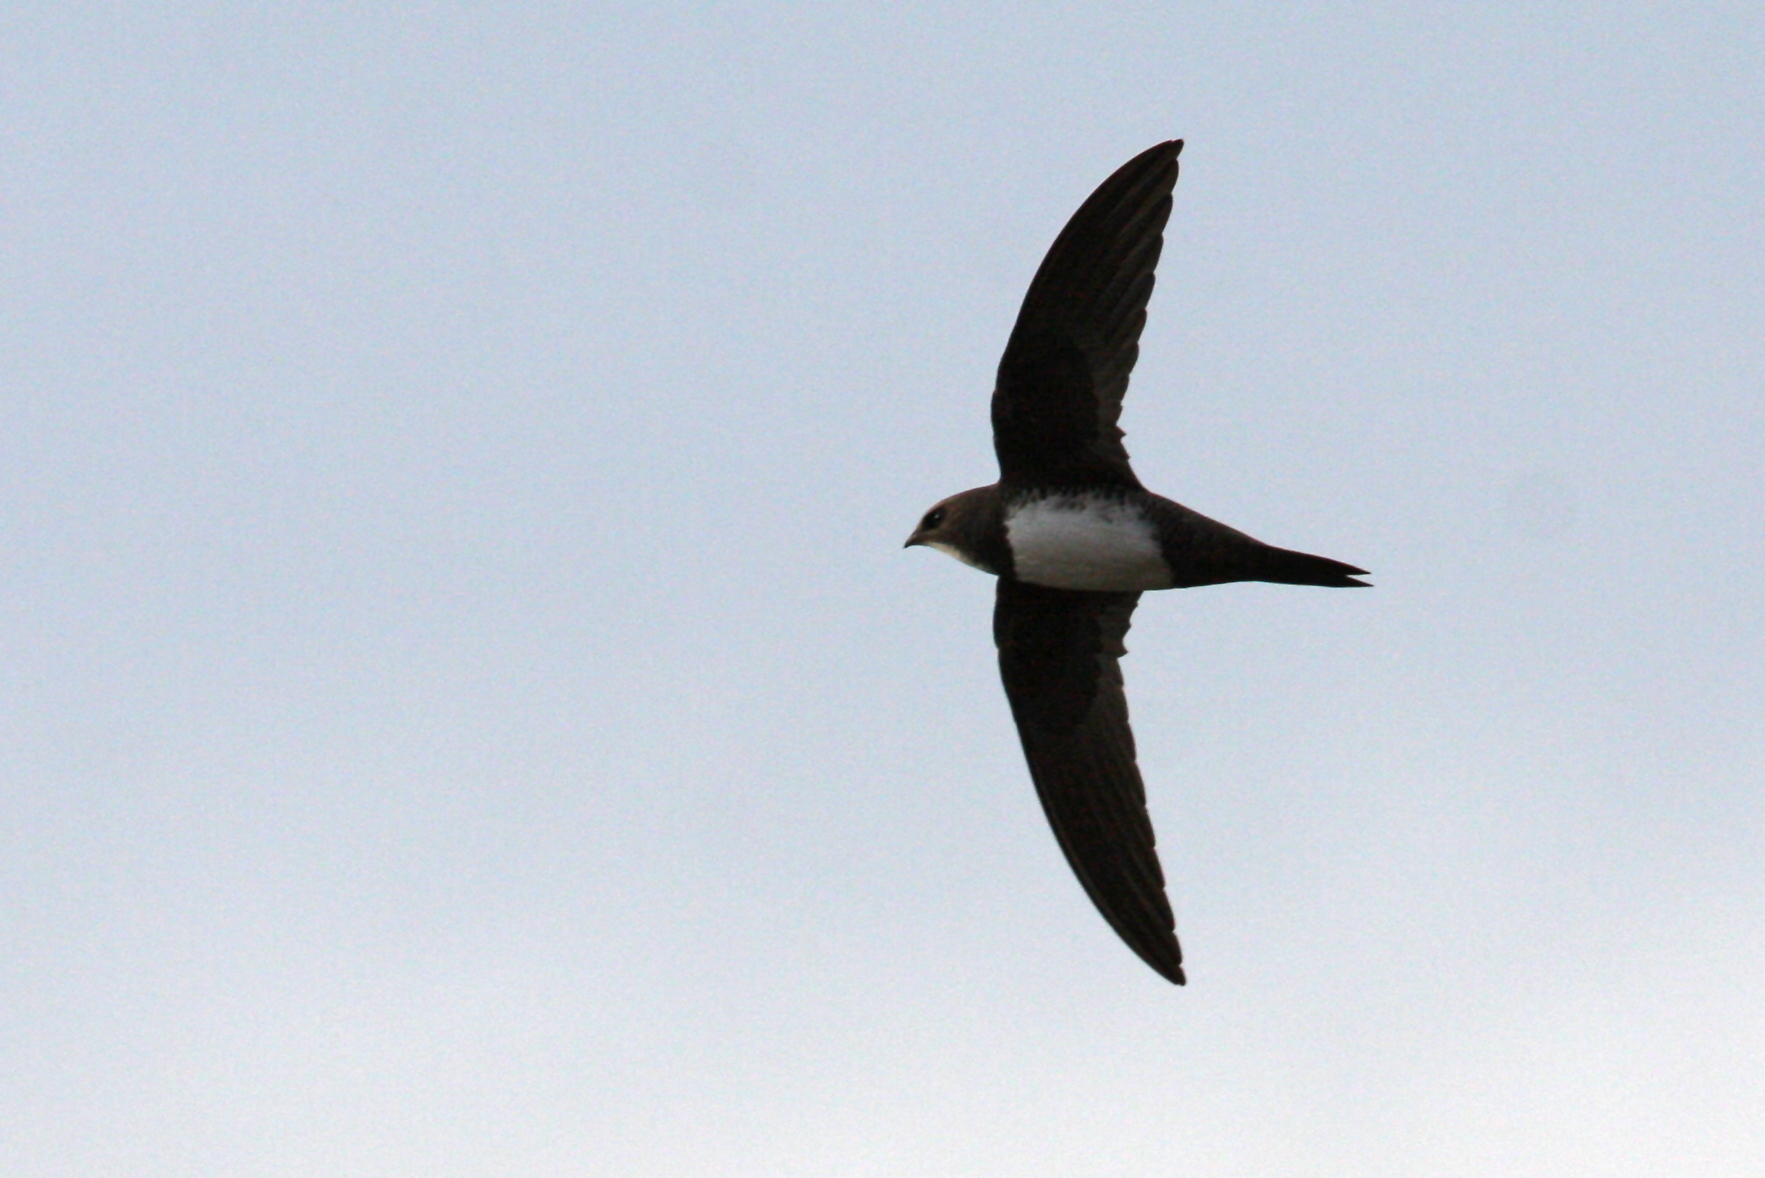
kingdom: Animalia
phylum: Chordata
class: Aves
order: Apodiformes
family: Apodidae
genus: Tachymarptis
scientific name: Tachymarptis melba
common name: Alpine swift
